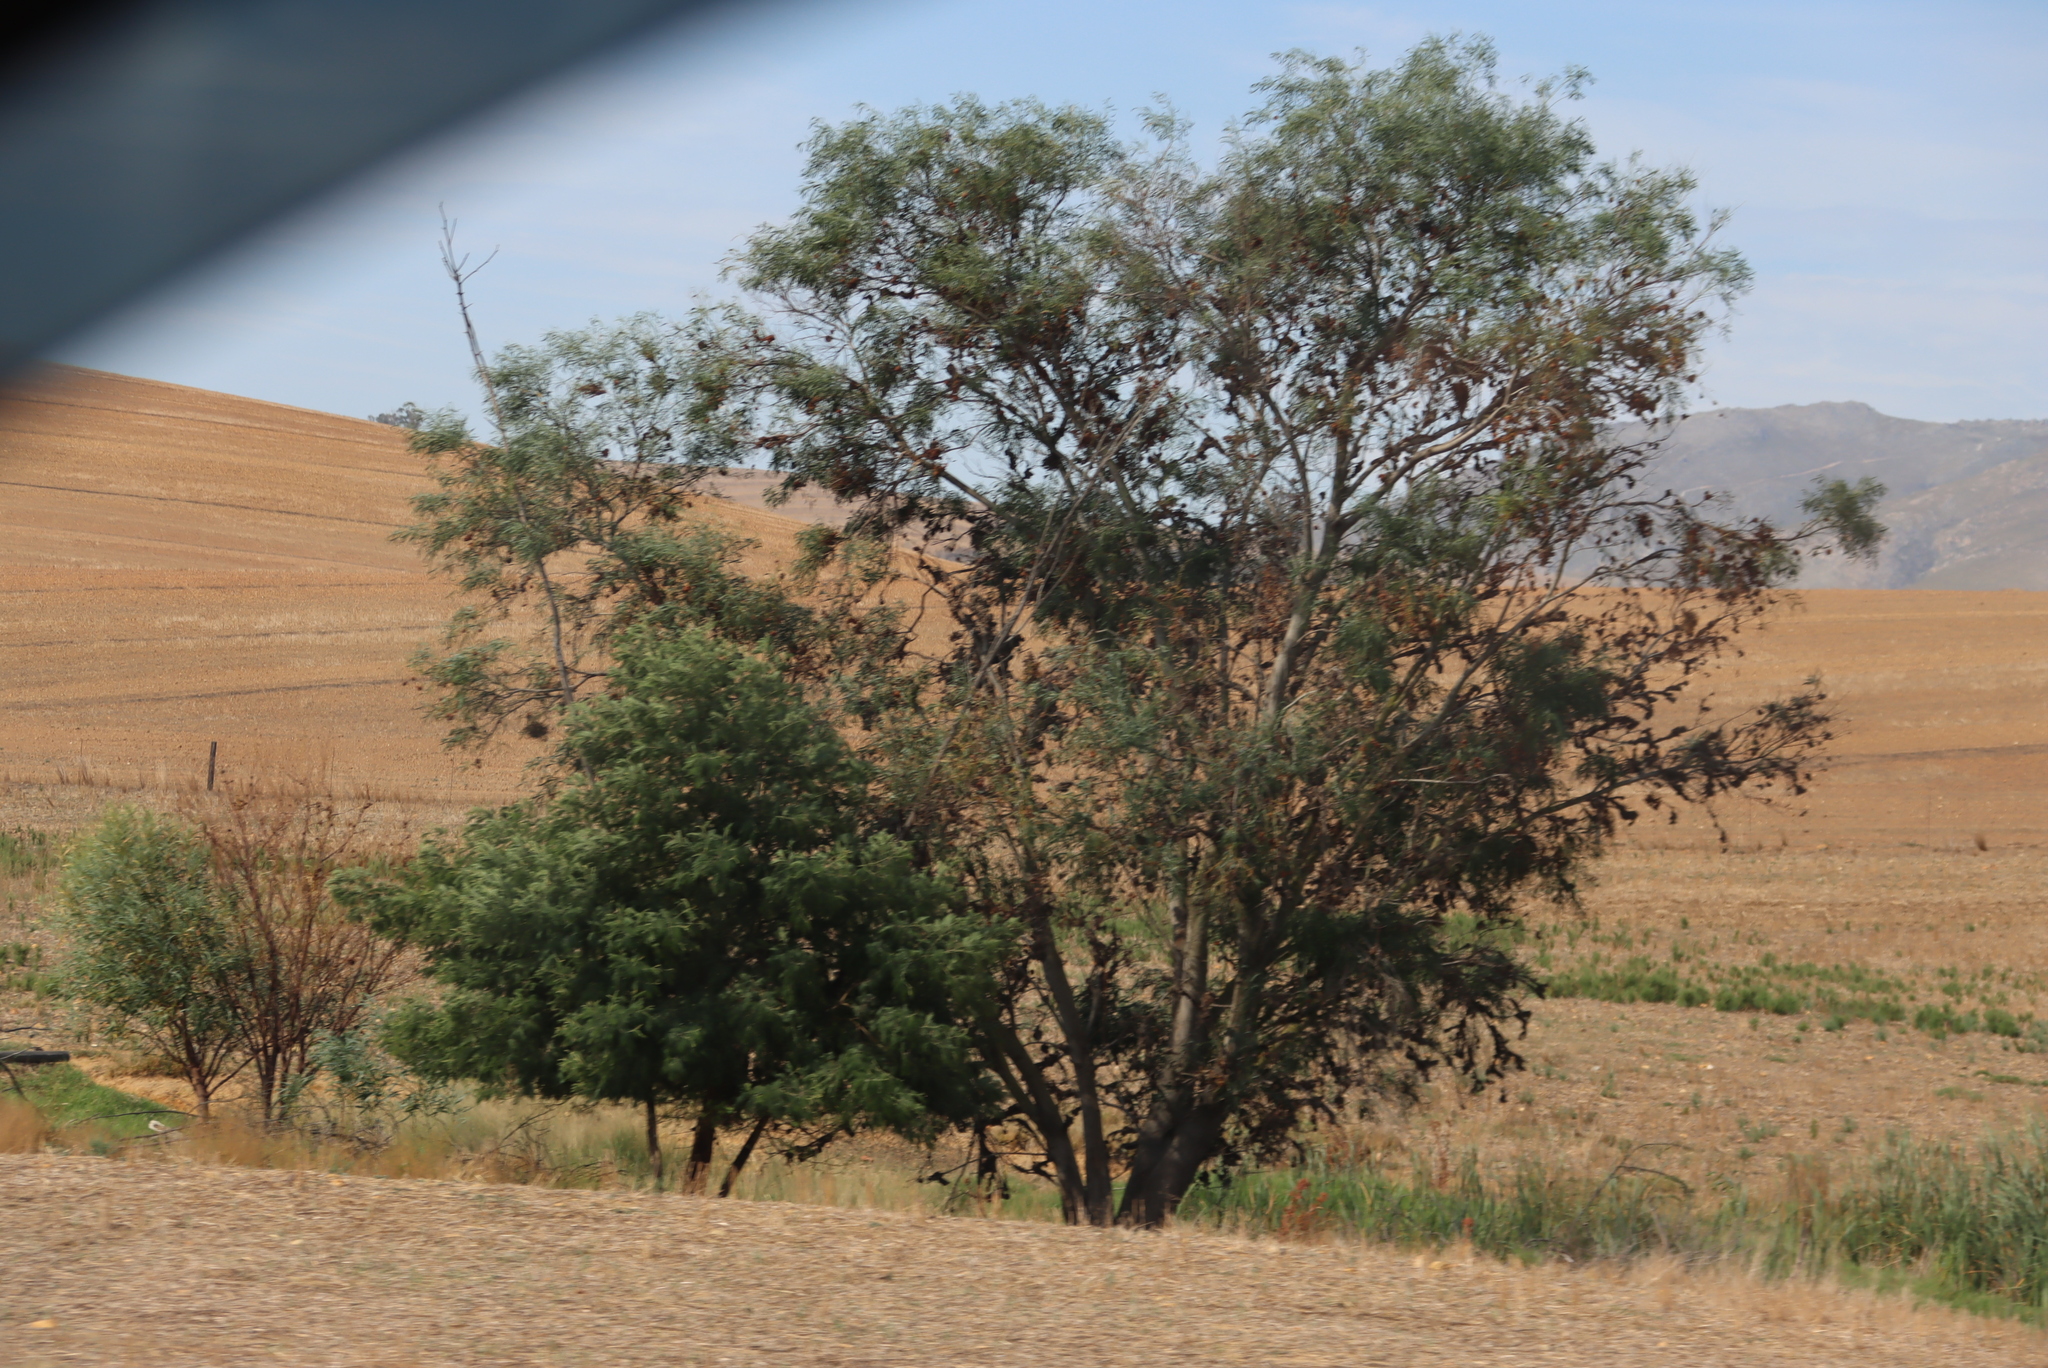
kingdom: Plantae
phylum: Tracheophyta
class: Magnoliopsida
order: Fabales
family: Fabaceae
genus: Acacia
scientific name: Acacia saligna
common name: Orange wattle
